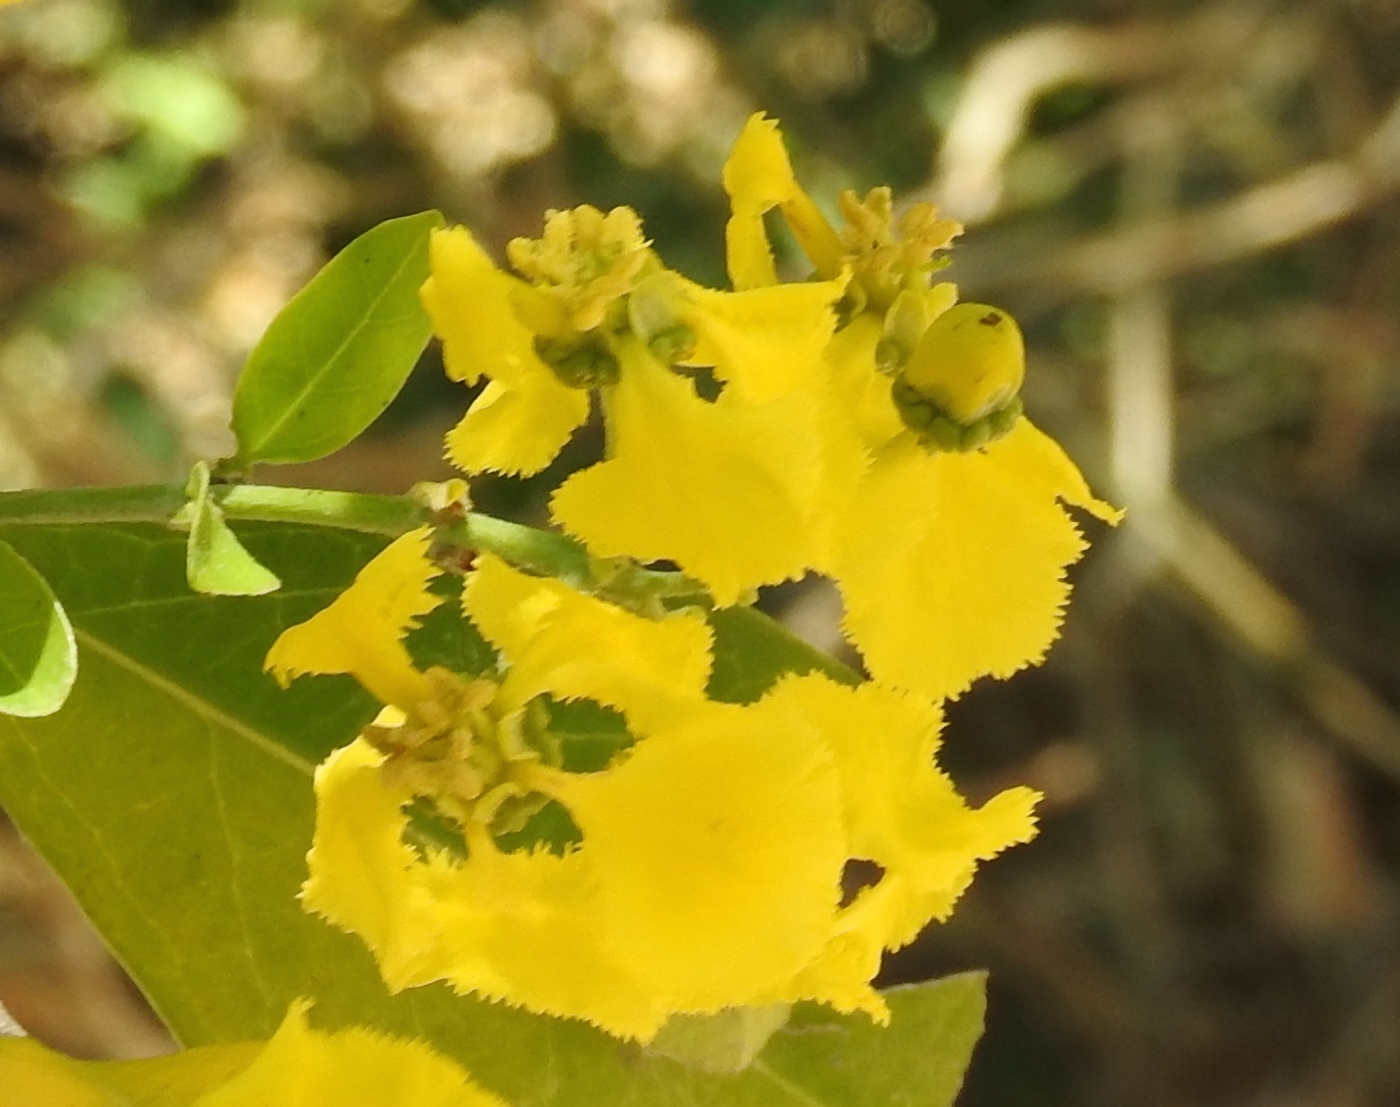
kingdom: Plantae
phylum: Tracheophyta
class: Magnoliopsida
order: Malpighiales
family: Malpighiaceae
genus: Callaeum
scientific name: Callaeum macropterum
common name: Mexican butterfly-vine
